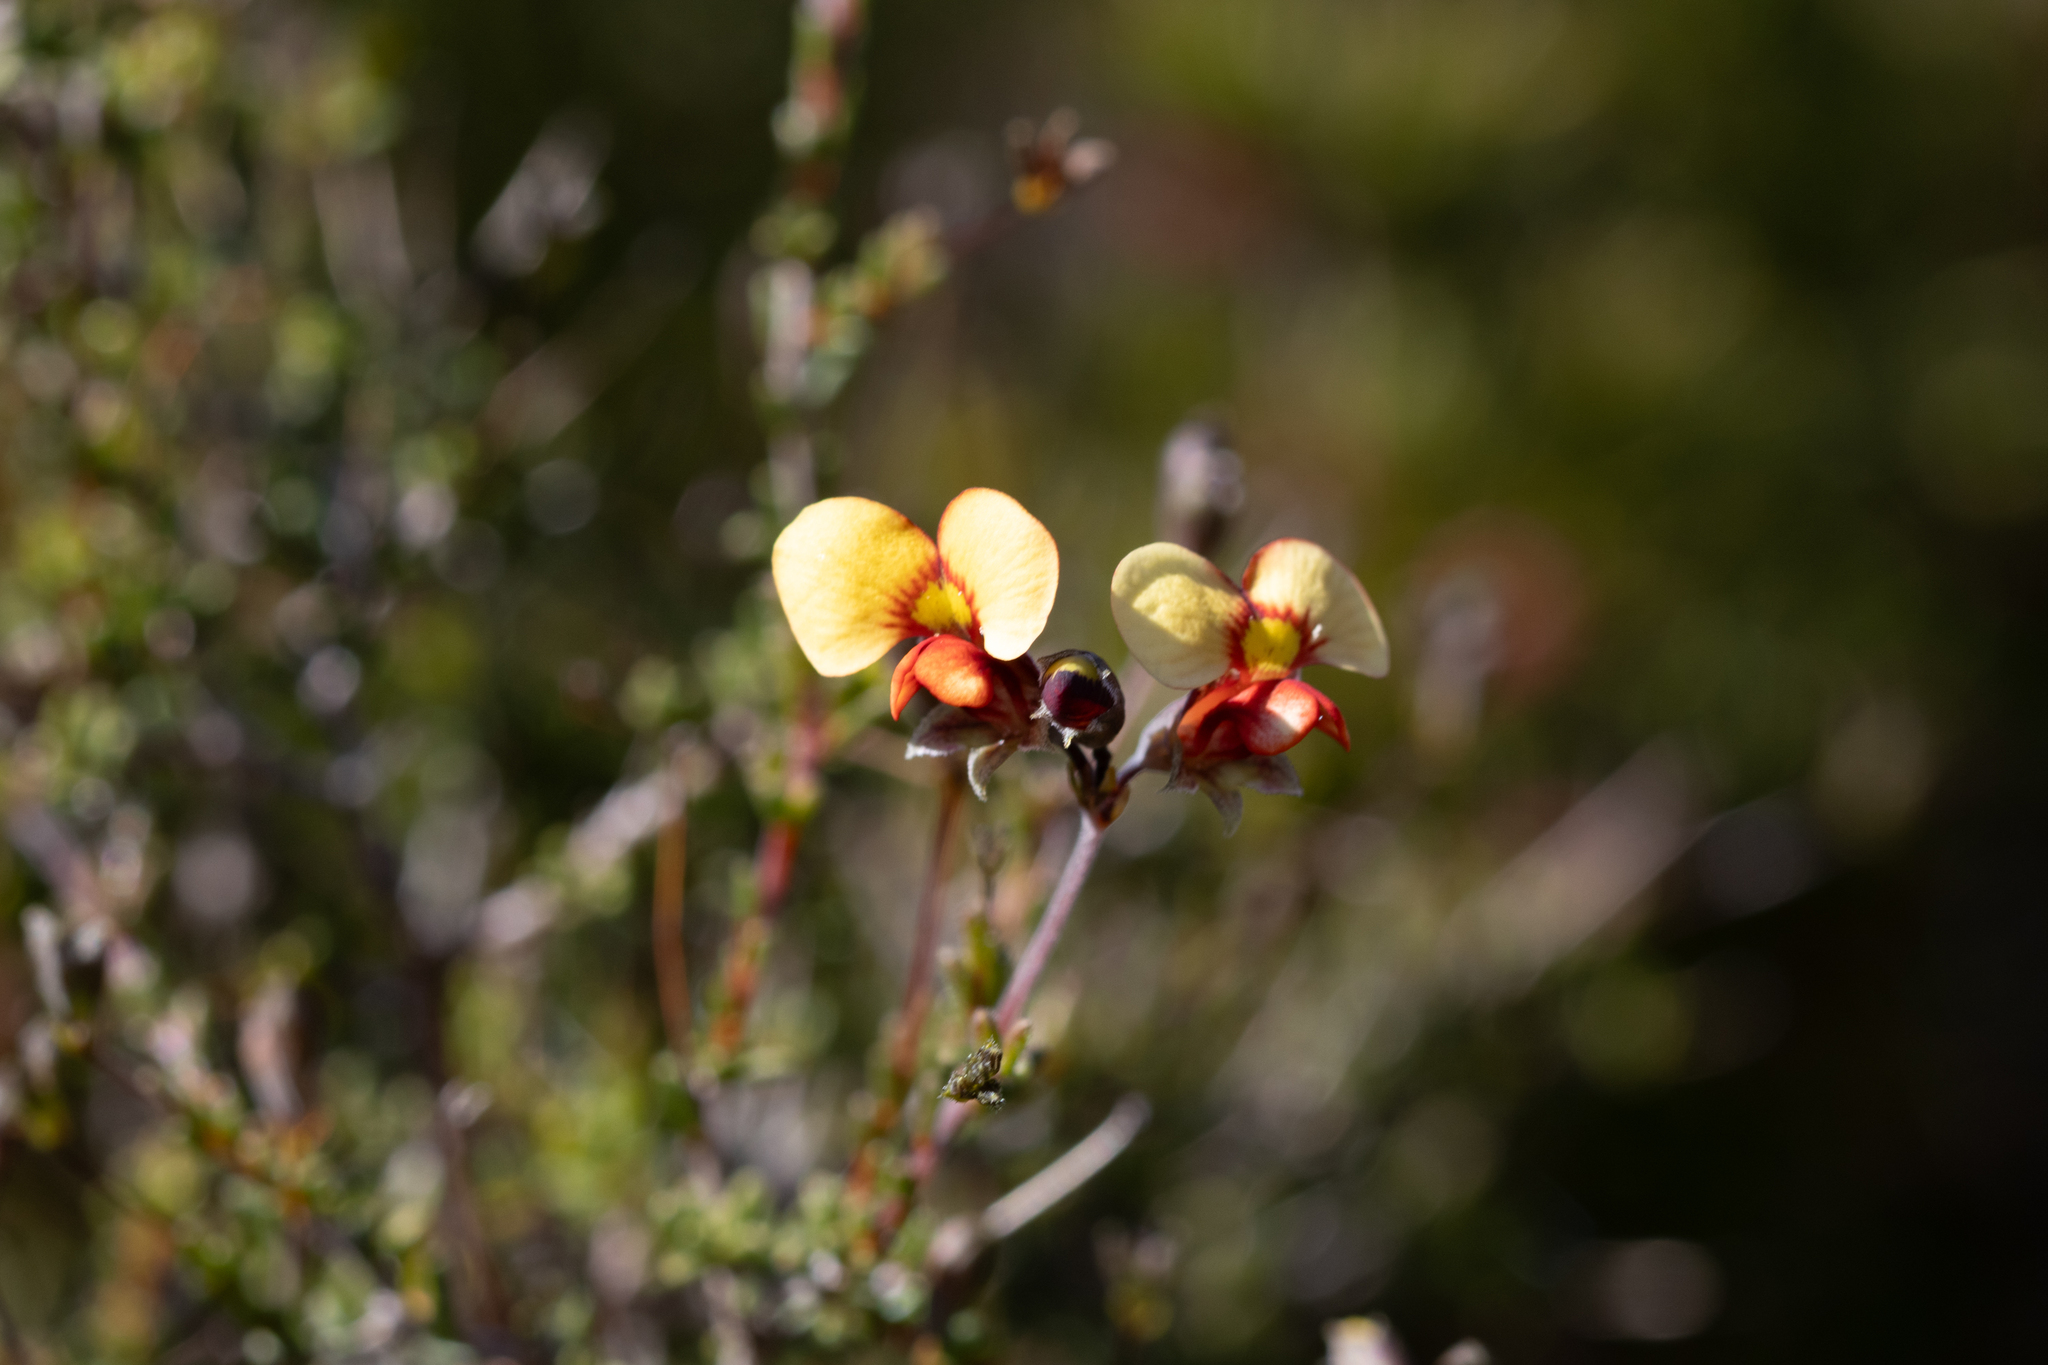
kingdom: Plantae
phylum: Tracheophyta
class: Magnoliopsida
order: Fabales
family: Fabaceae
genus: Dillwynia
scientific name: Dillwynia hispida
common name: Red parrot-pea
